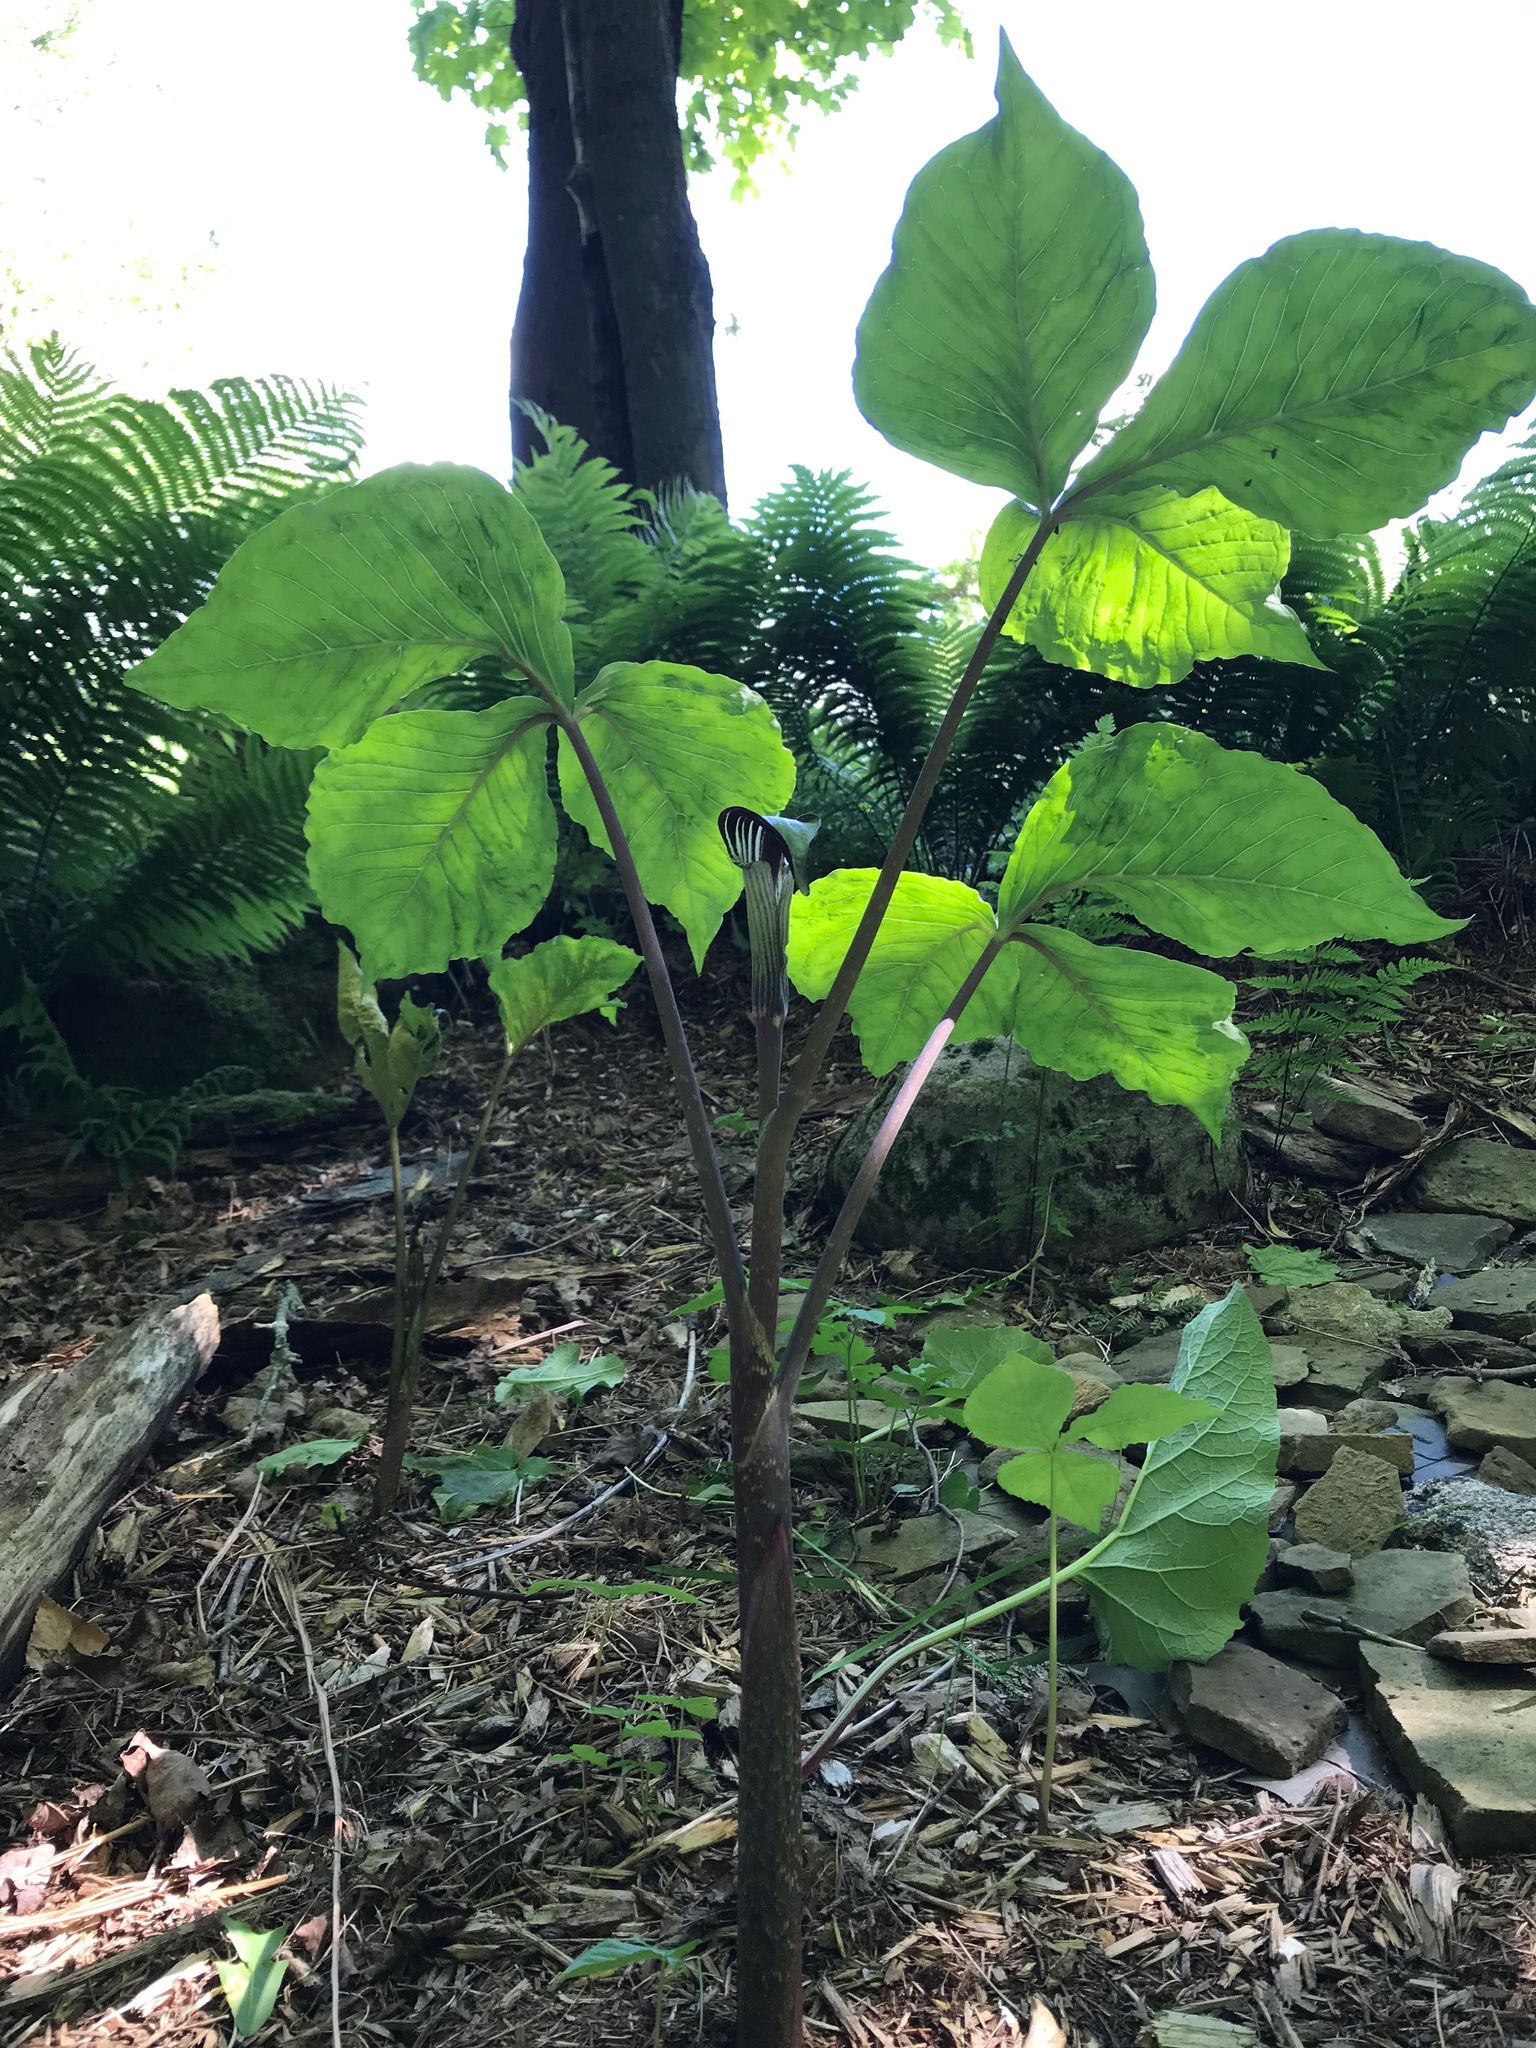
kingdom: Plantae
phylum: Tracheophyta
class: Liliopsida
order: Alismatales
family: Araceae
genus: Arisaema
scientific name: Arisaema triphyllum
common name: Jack-in-the-pulpit
